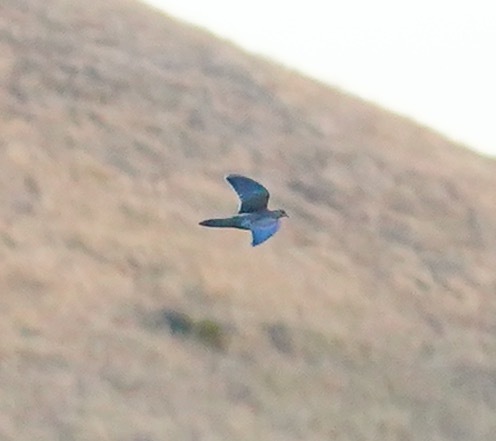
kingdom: Animalia
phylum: Chordata
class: Aves
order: Columbiformes
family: Columbidae
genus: Zenaida
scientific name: Zenaida macroura
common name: Mourning dove
